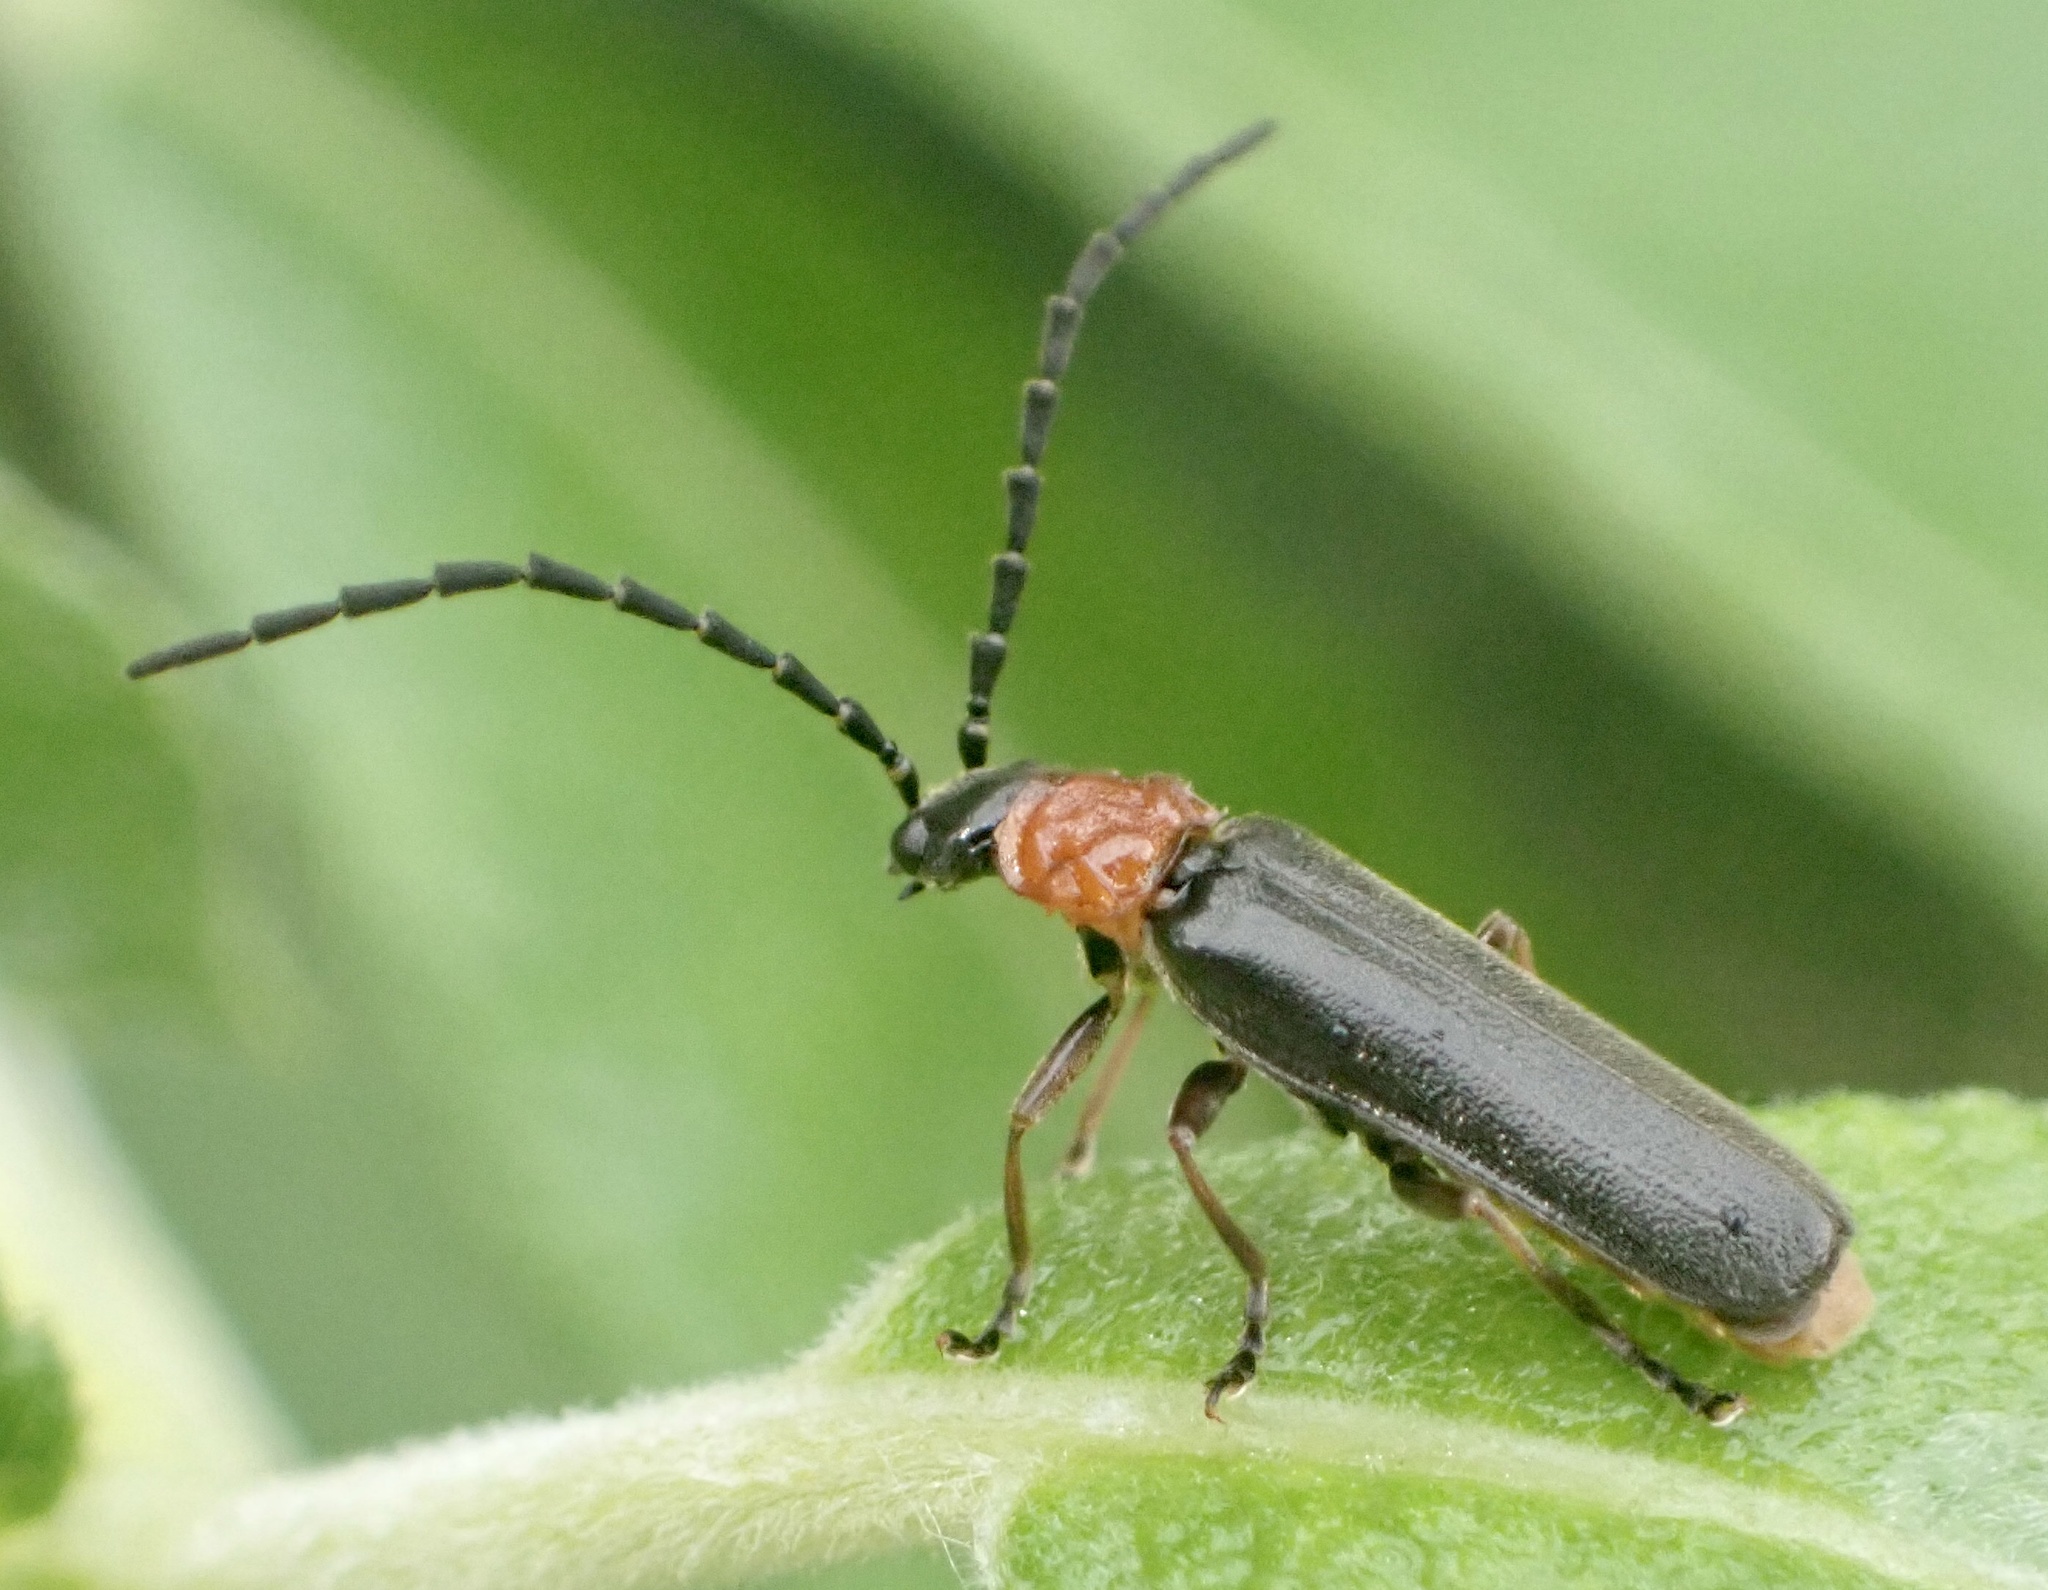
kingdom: Animalia
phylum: Arthropoda
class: Insecta
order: Coleoptera
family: Cantharidae
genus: Crudosilis
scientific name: Crudosilis ruficollis
